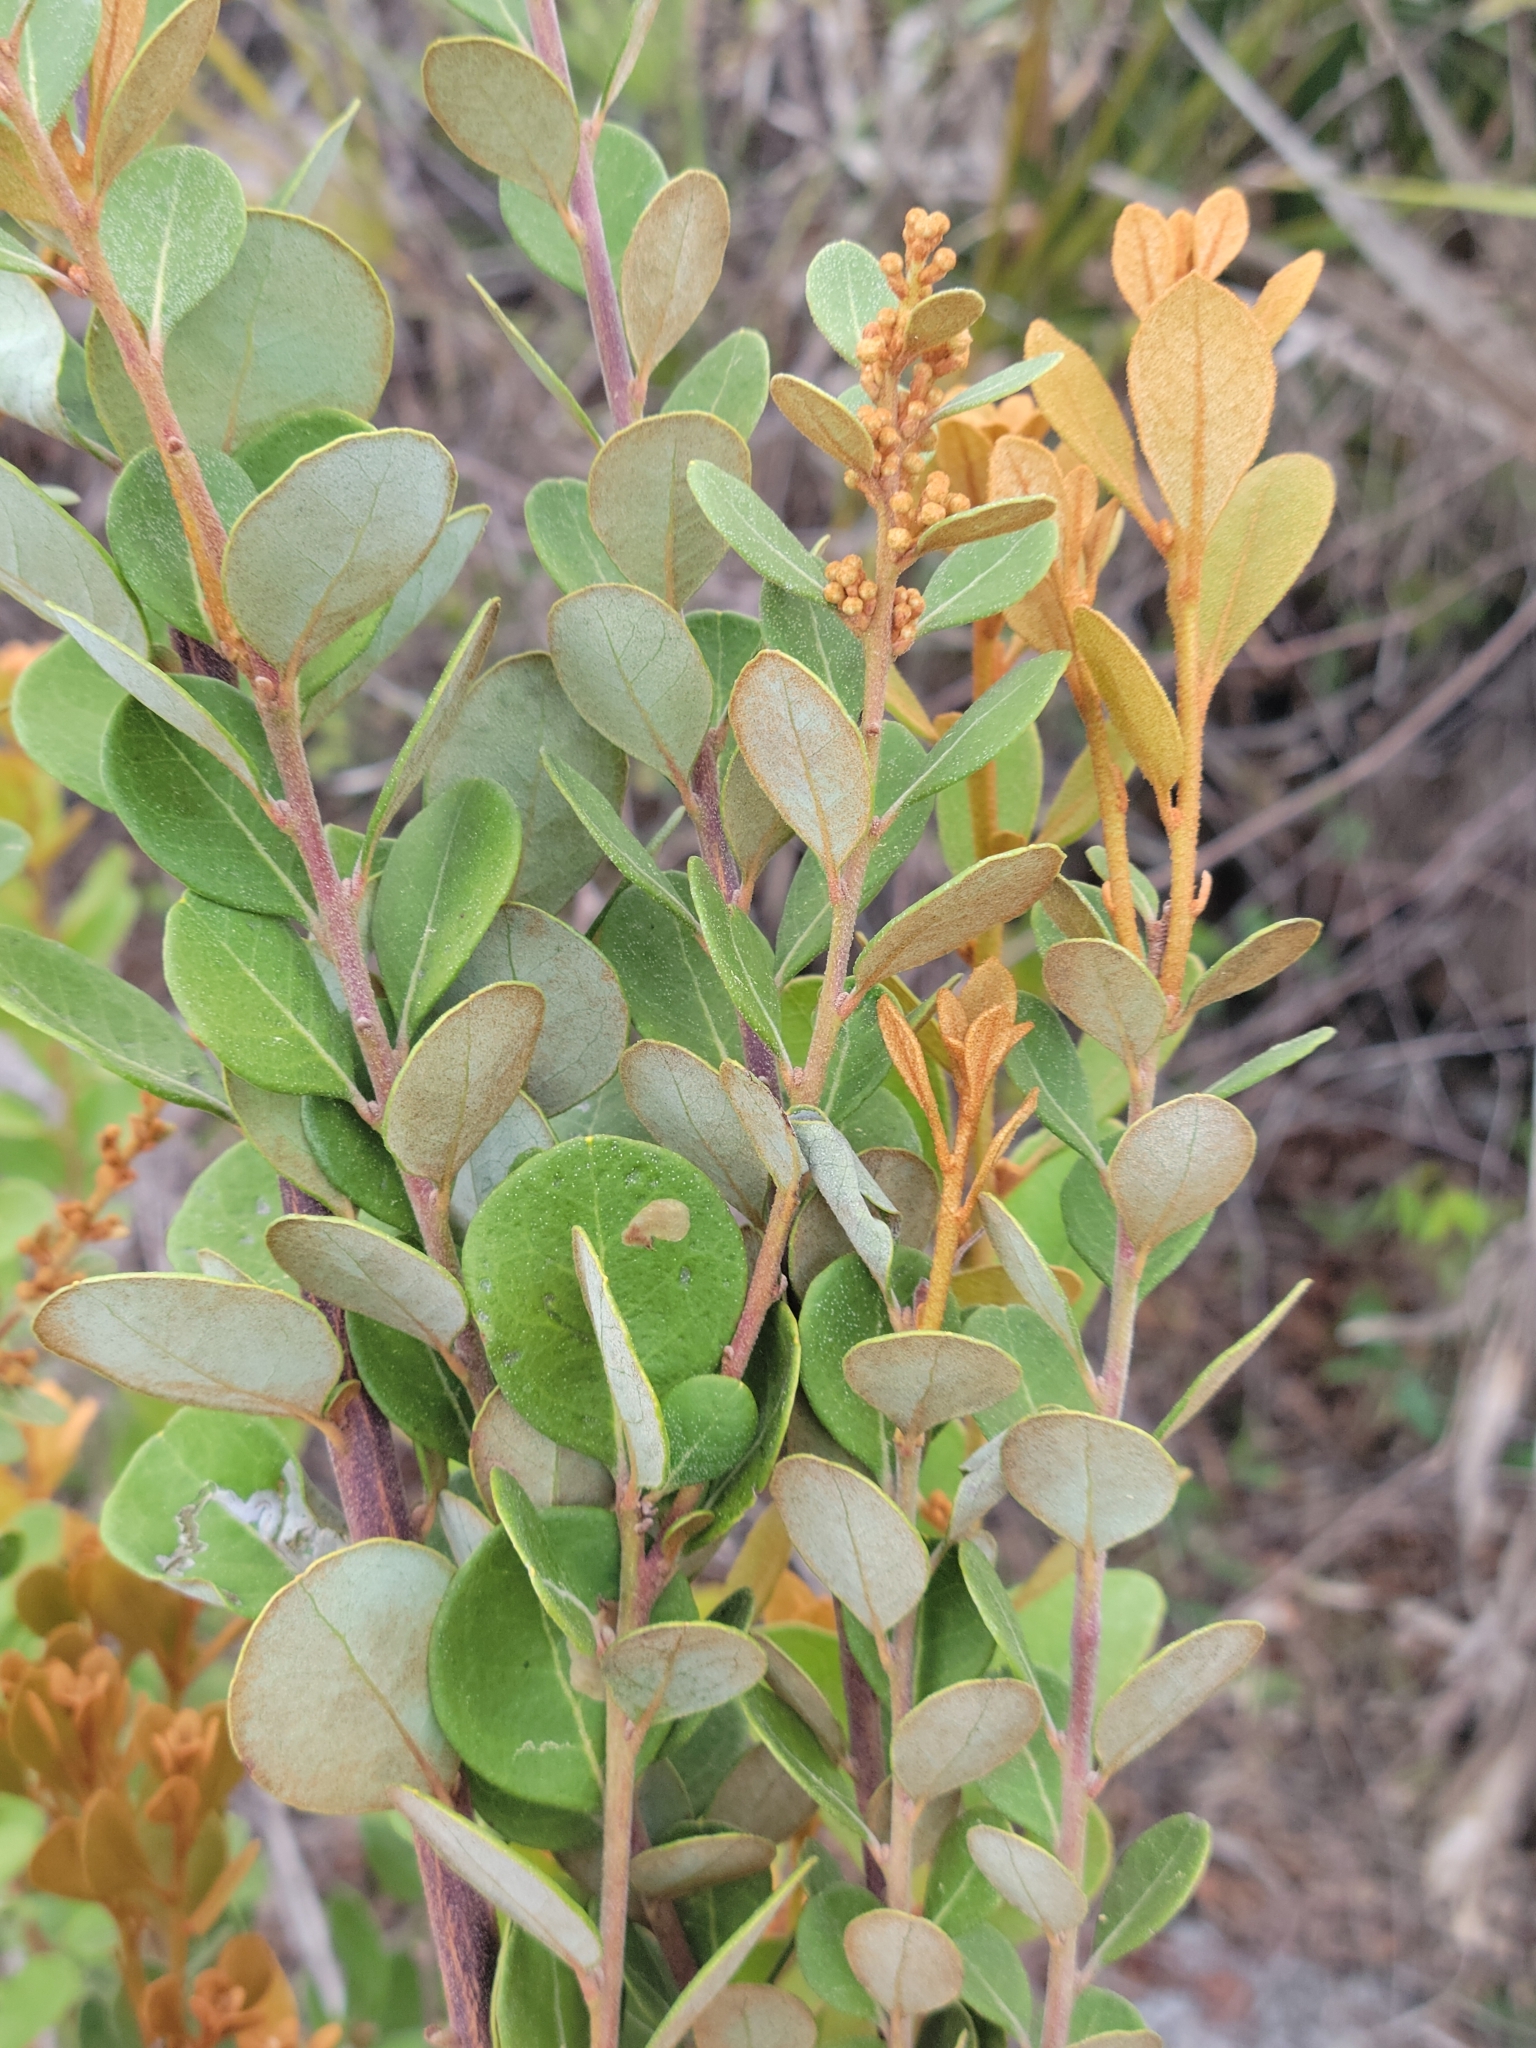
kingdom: Plantae
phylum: Tracheophyta
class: Magnoliopsida
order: Ericales
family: Ericaceae
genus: Lyonia
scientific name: Lyonia fruticosa
